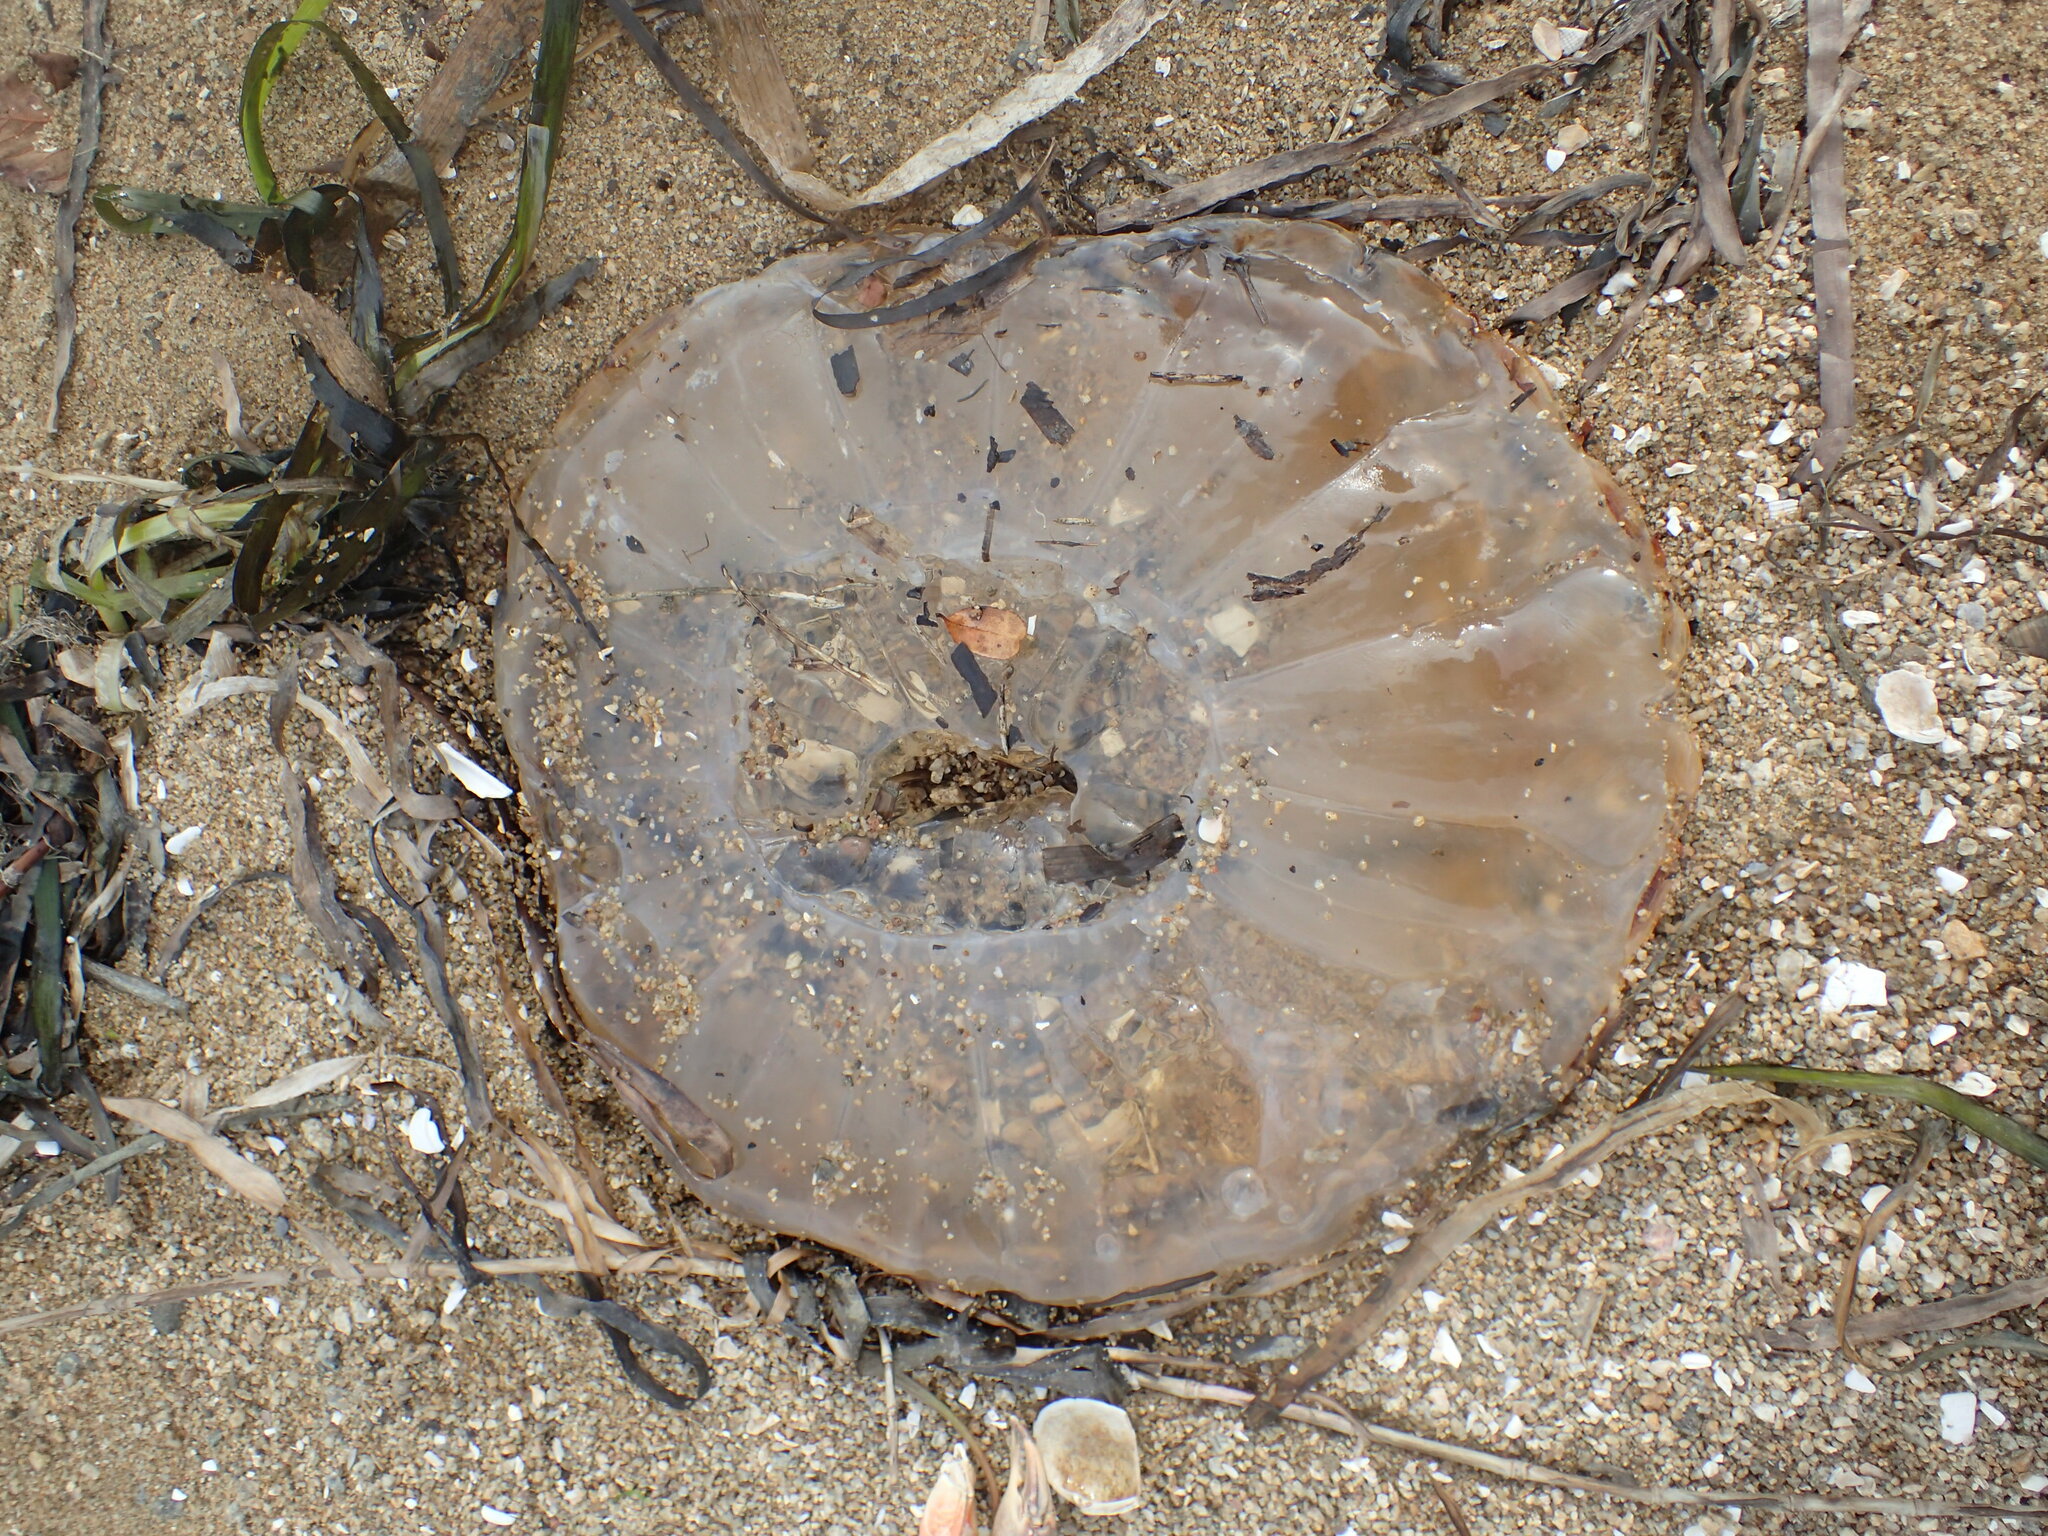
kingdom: Animalia
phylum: Cnidaria
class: Scyphozoa
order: Semaeostomeae
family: Pelagiidae
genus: Chrysaora
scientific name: Chrysaora fuscescens
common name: Sea nettle
